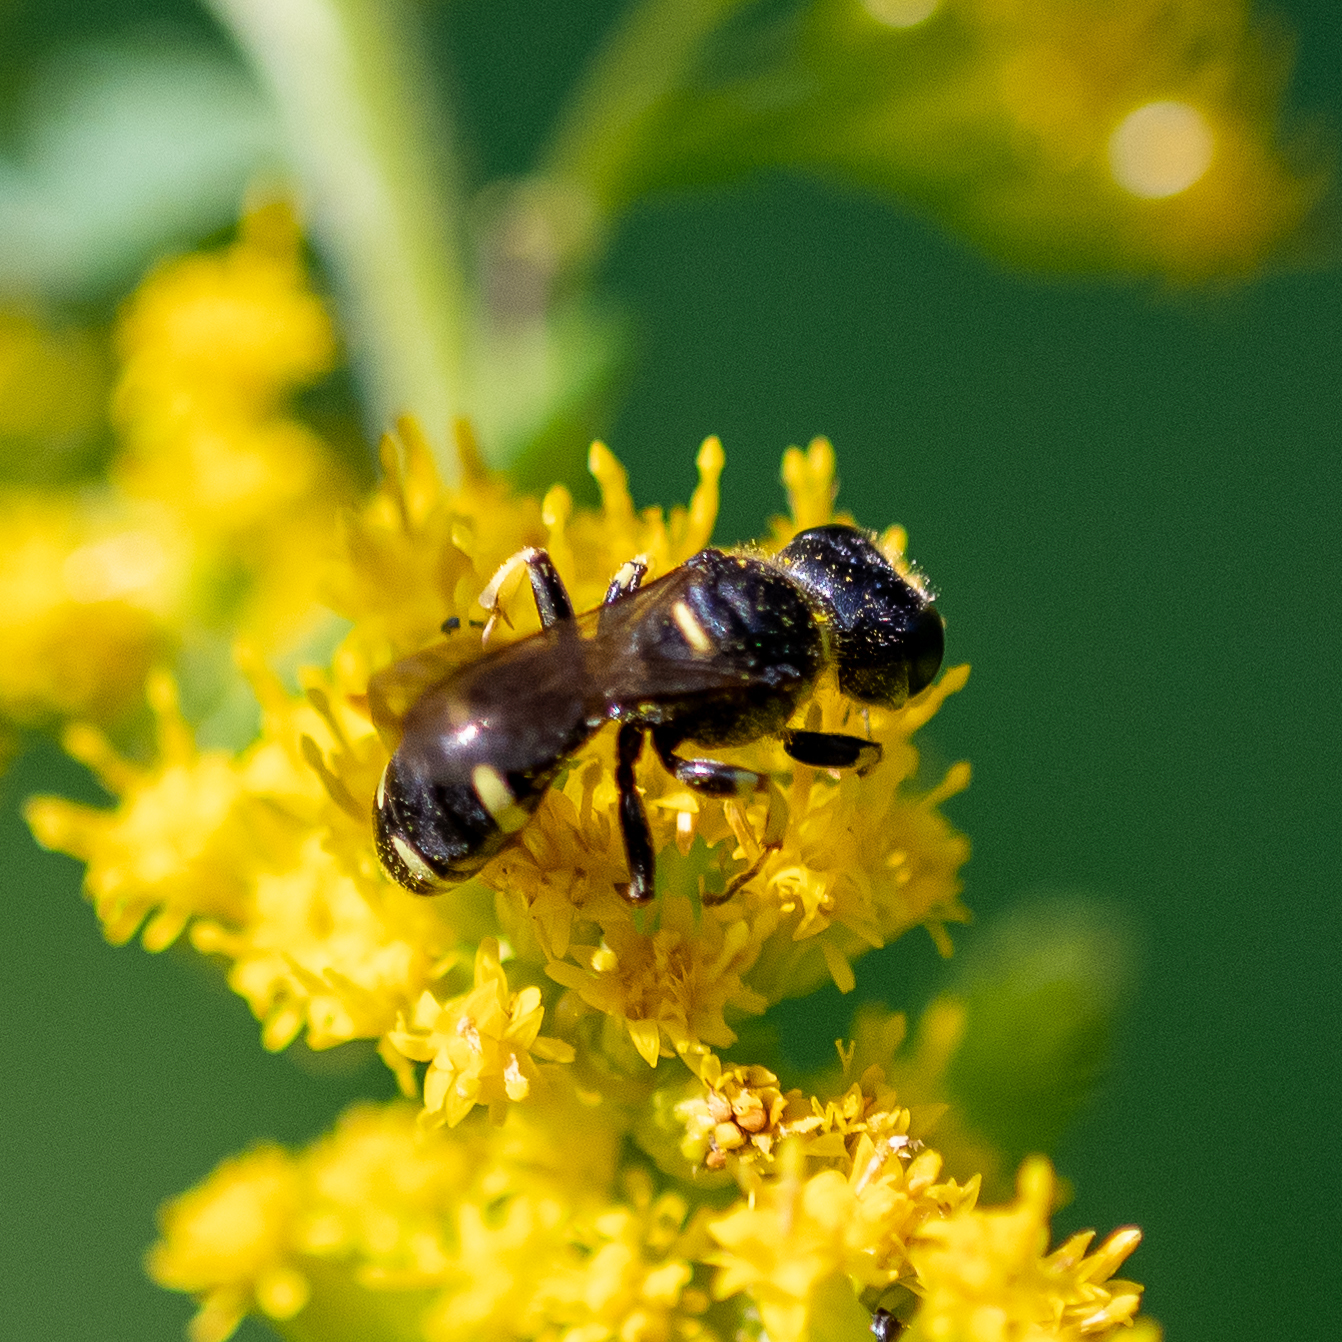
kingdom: Animalia
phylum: Arthropoda
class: Insecta
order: Hymenoptera
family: Crabronidae
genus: Ectemnius
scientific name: Ectemnius continuus
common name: Common ectemnius
